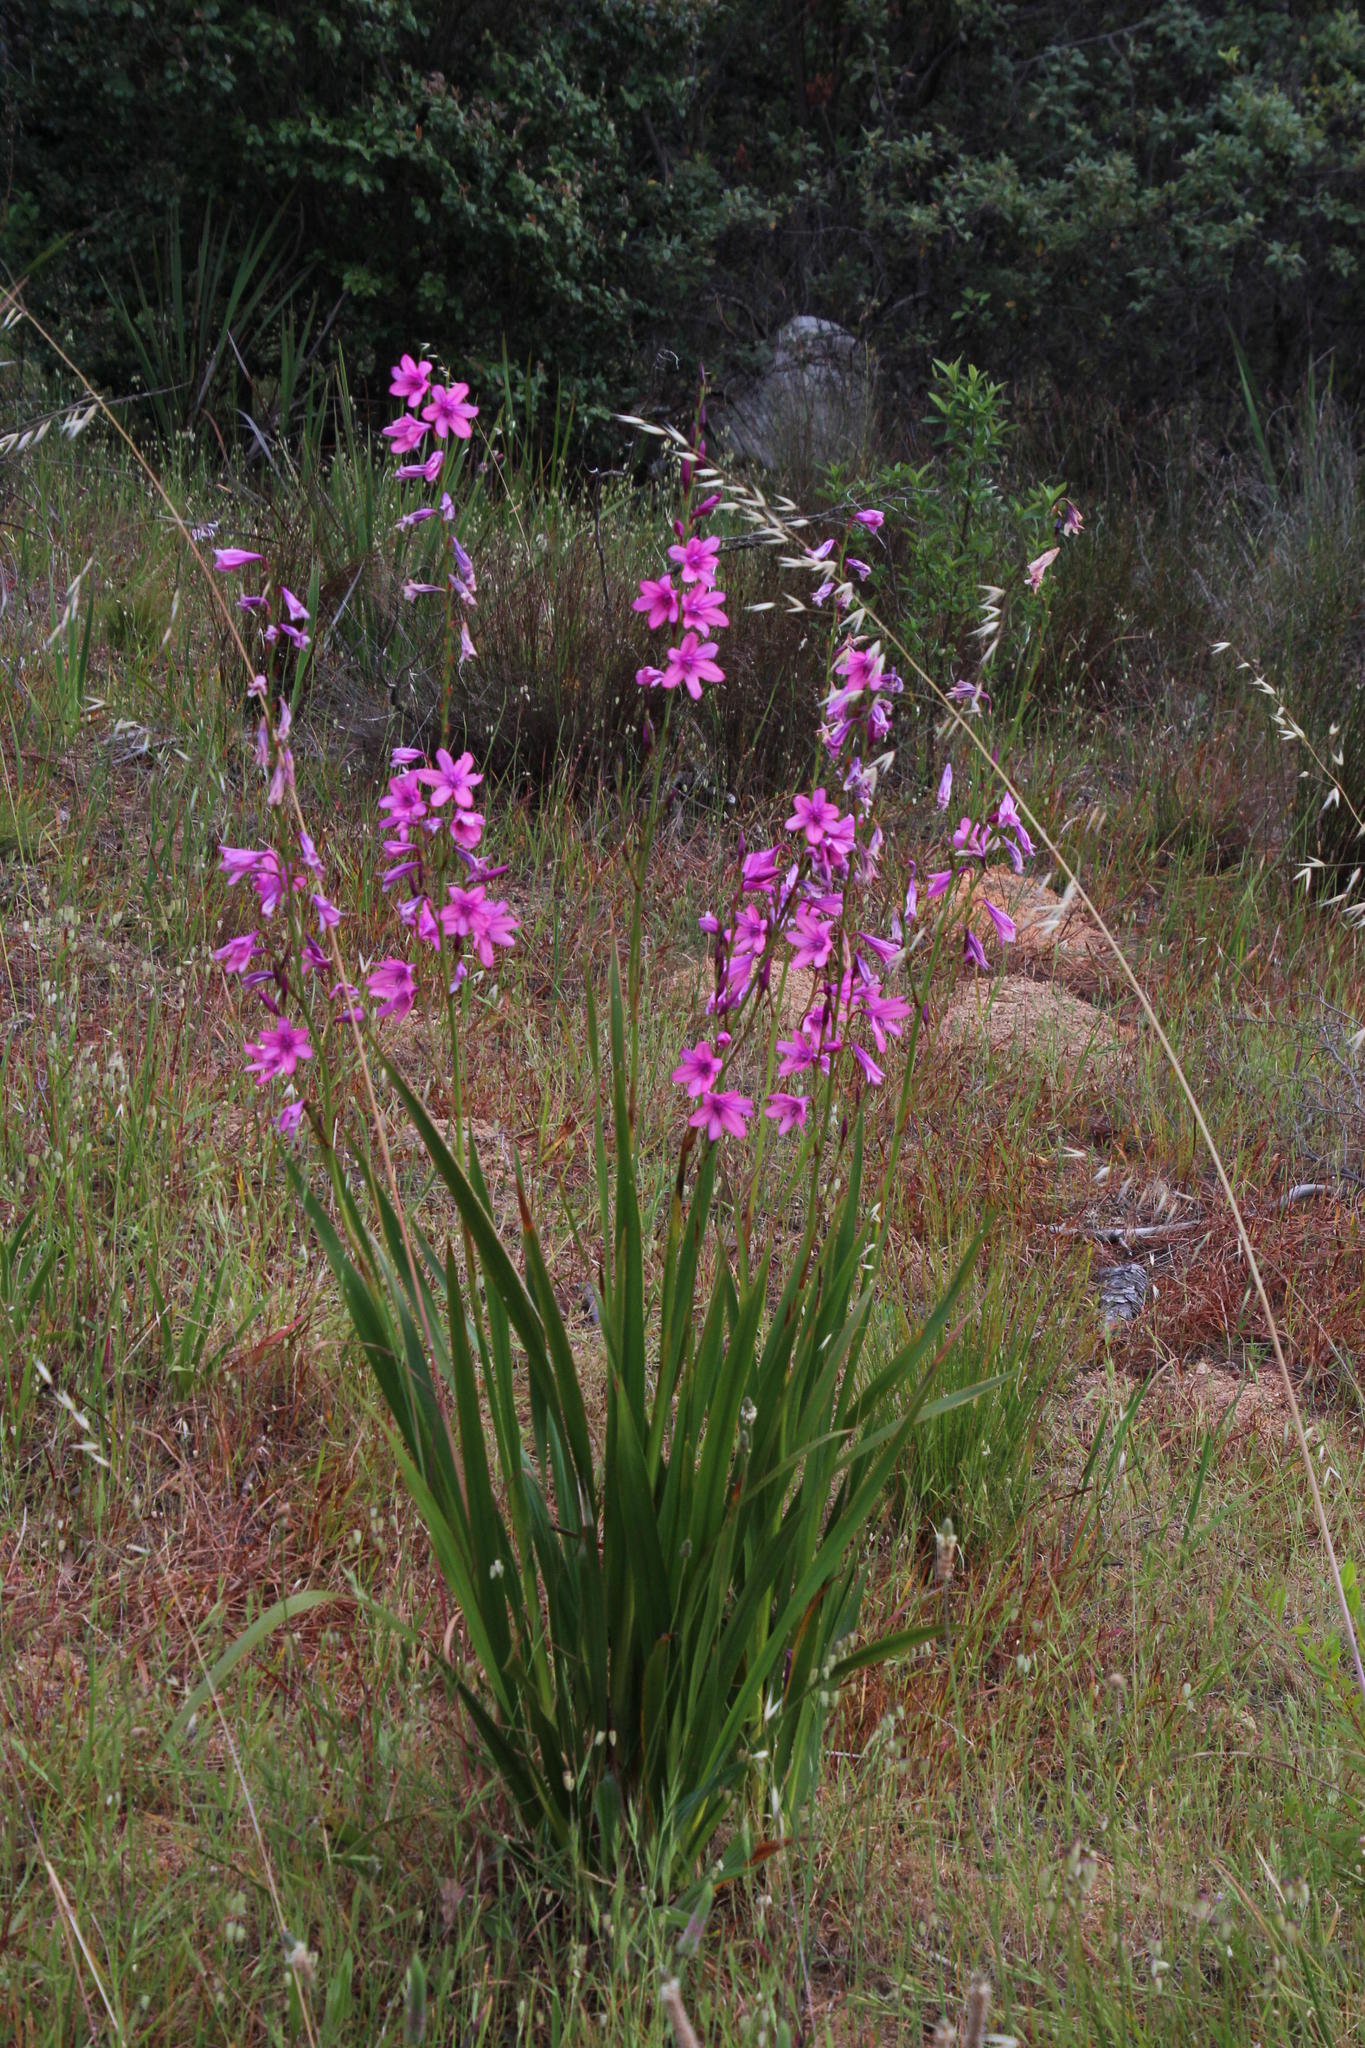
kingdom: Plantae
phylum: Tracheophyta
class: Liliopsida
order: Asparagales
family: Iridaceae
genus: Watsonia
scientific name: Watsonia borbonica
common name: Bugle-lily
